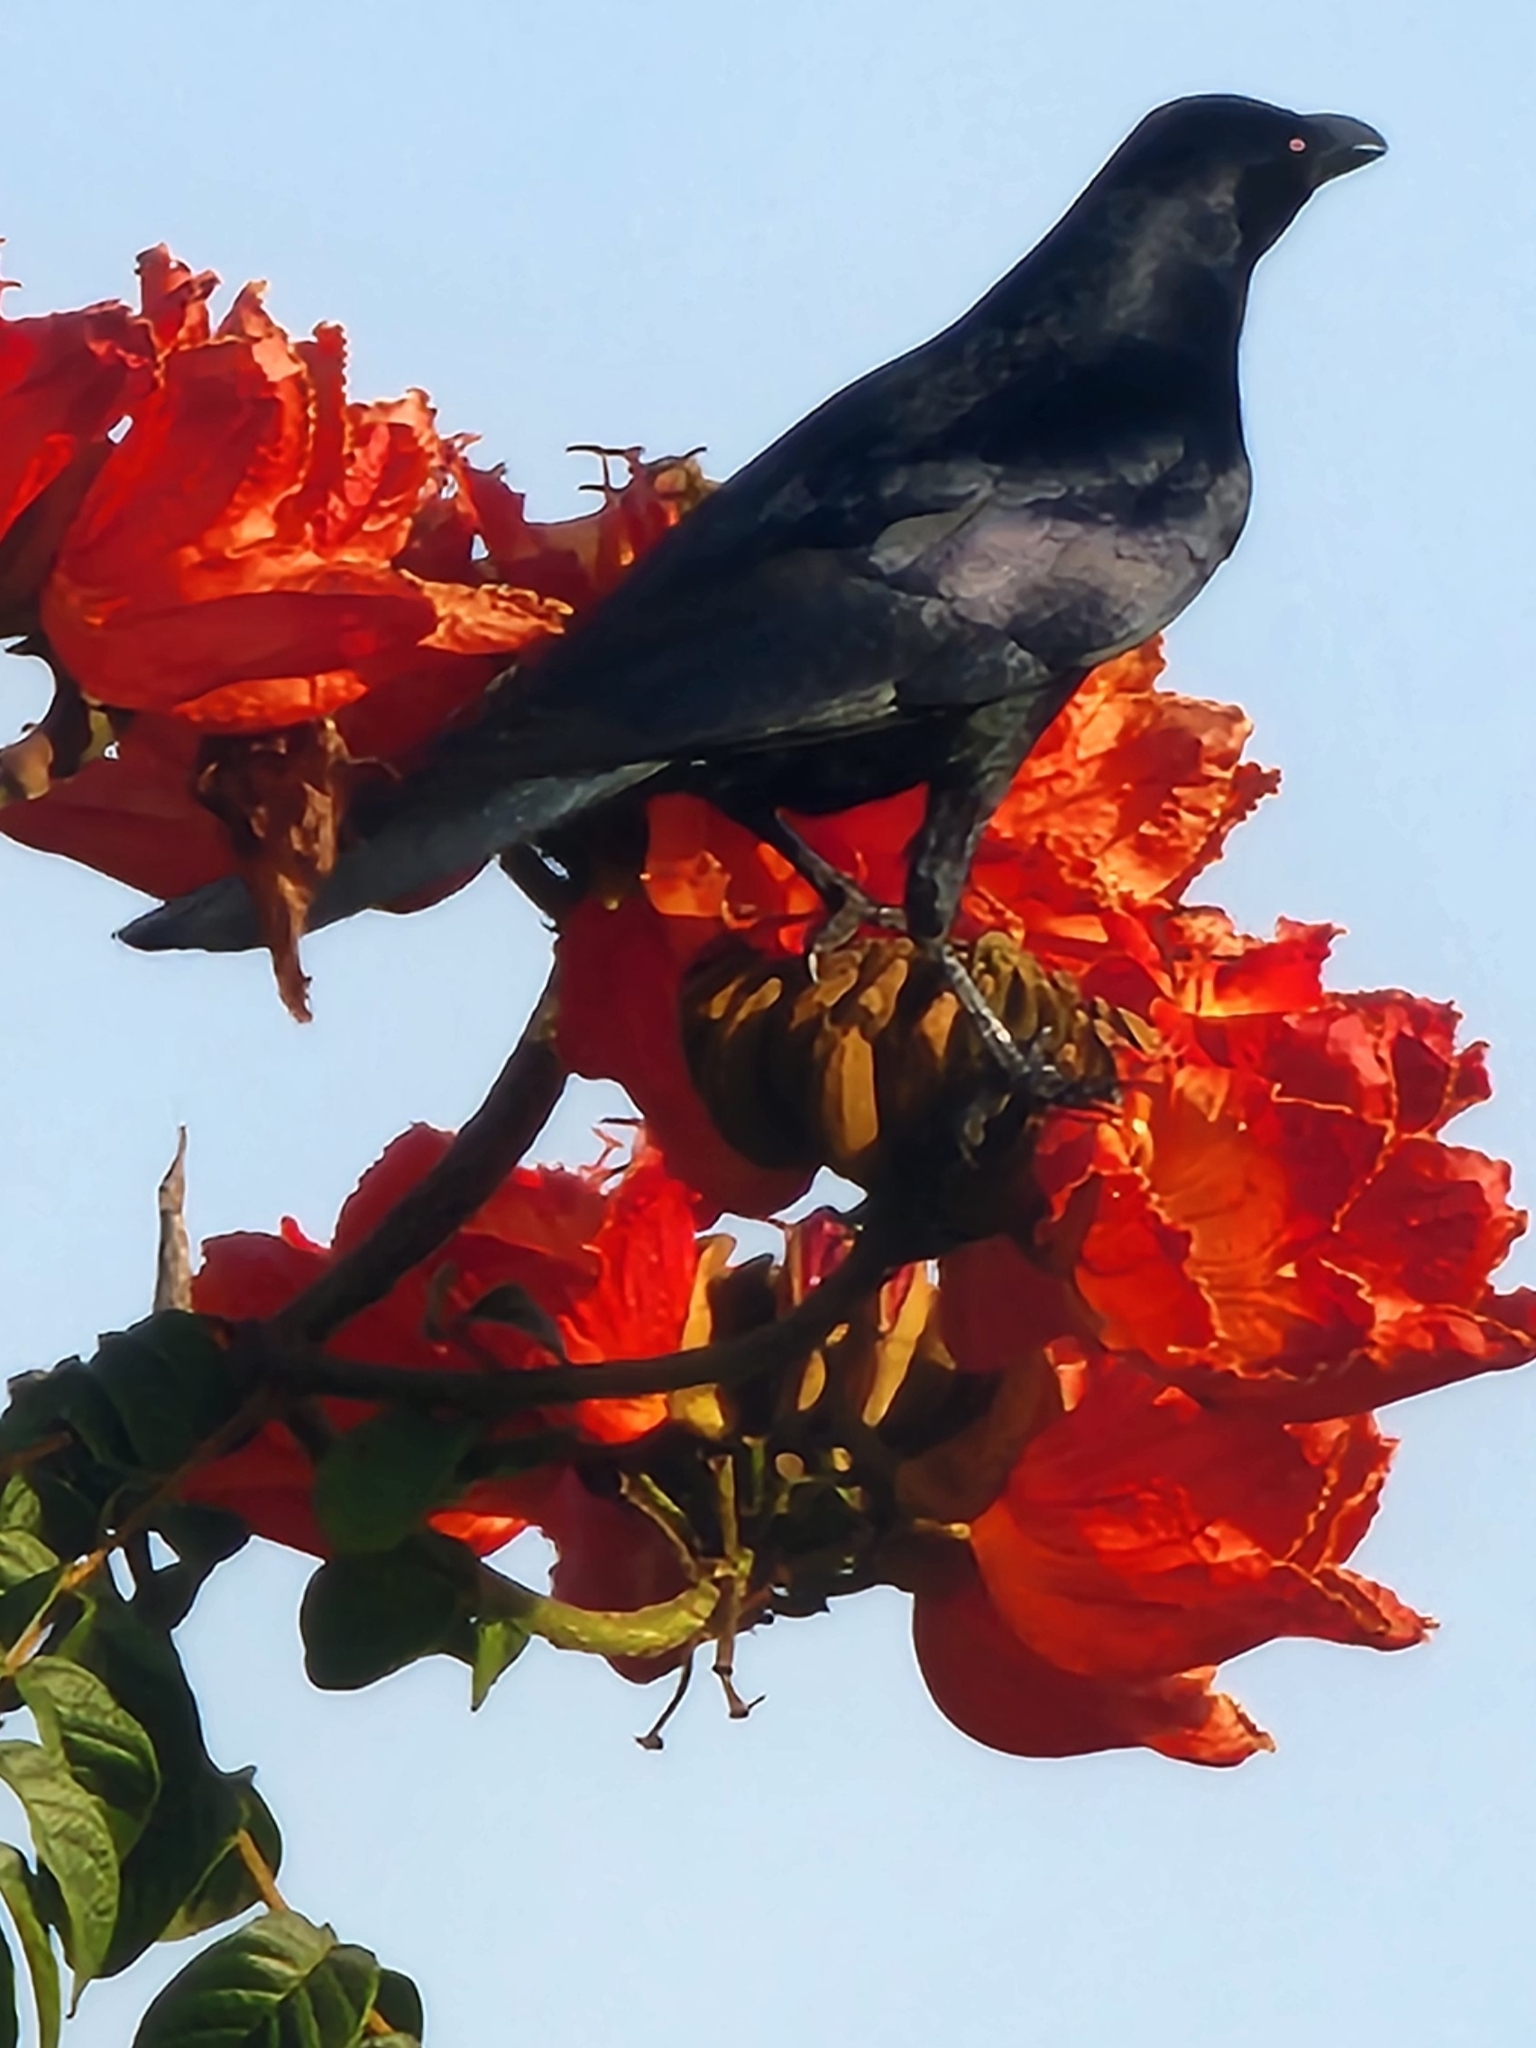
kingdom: Animalia
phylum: Chordata
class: Aves
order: Passeriformes
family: Corvidae
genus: Corvus
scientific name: Corvus sinaloae
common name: Sinaloa crow
